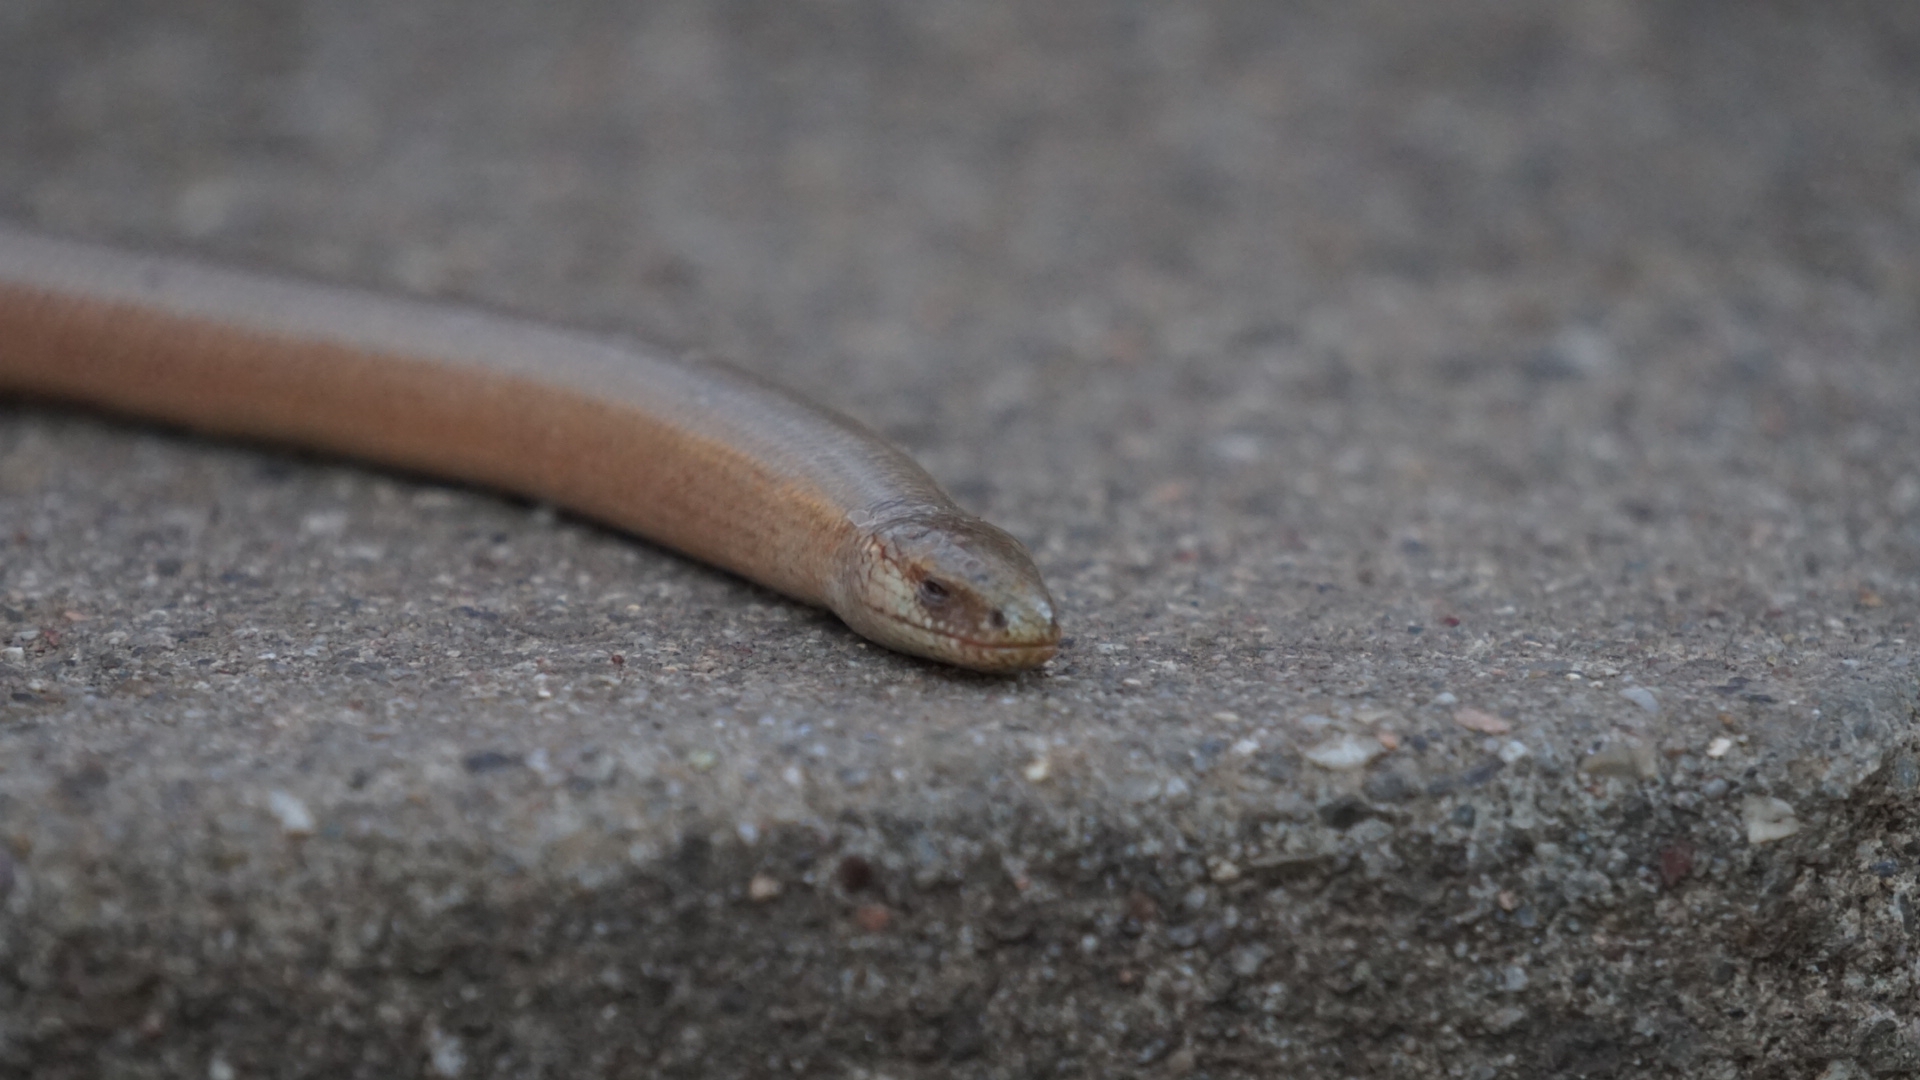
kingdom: Animalia
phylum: Chordata
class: Squamata
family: Anguidae
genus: Anguis
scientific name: Anguis fragilis
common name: Slow worm
